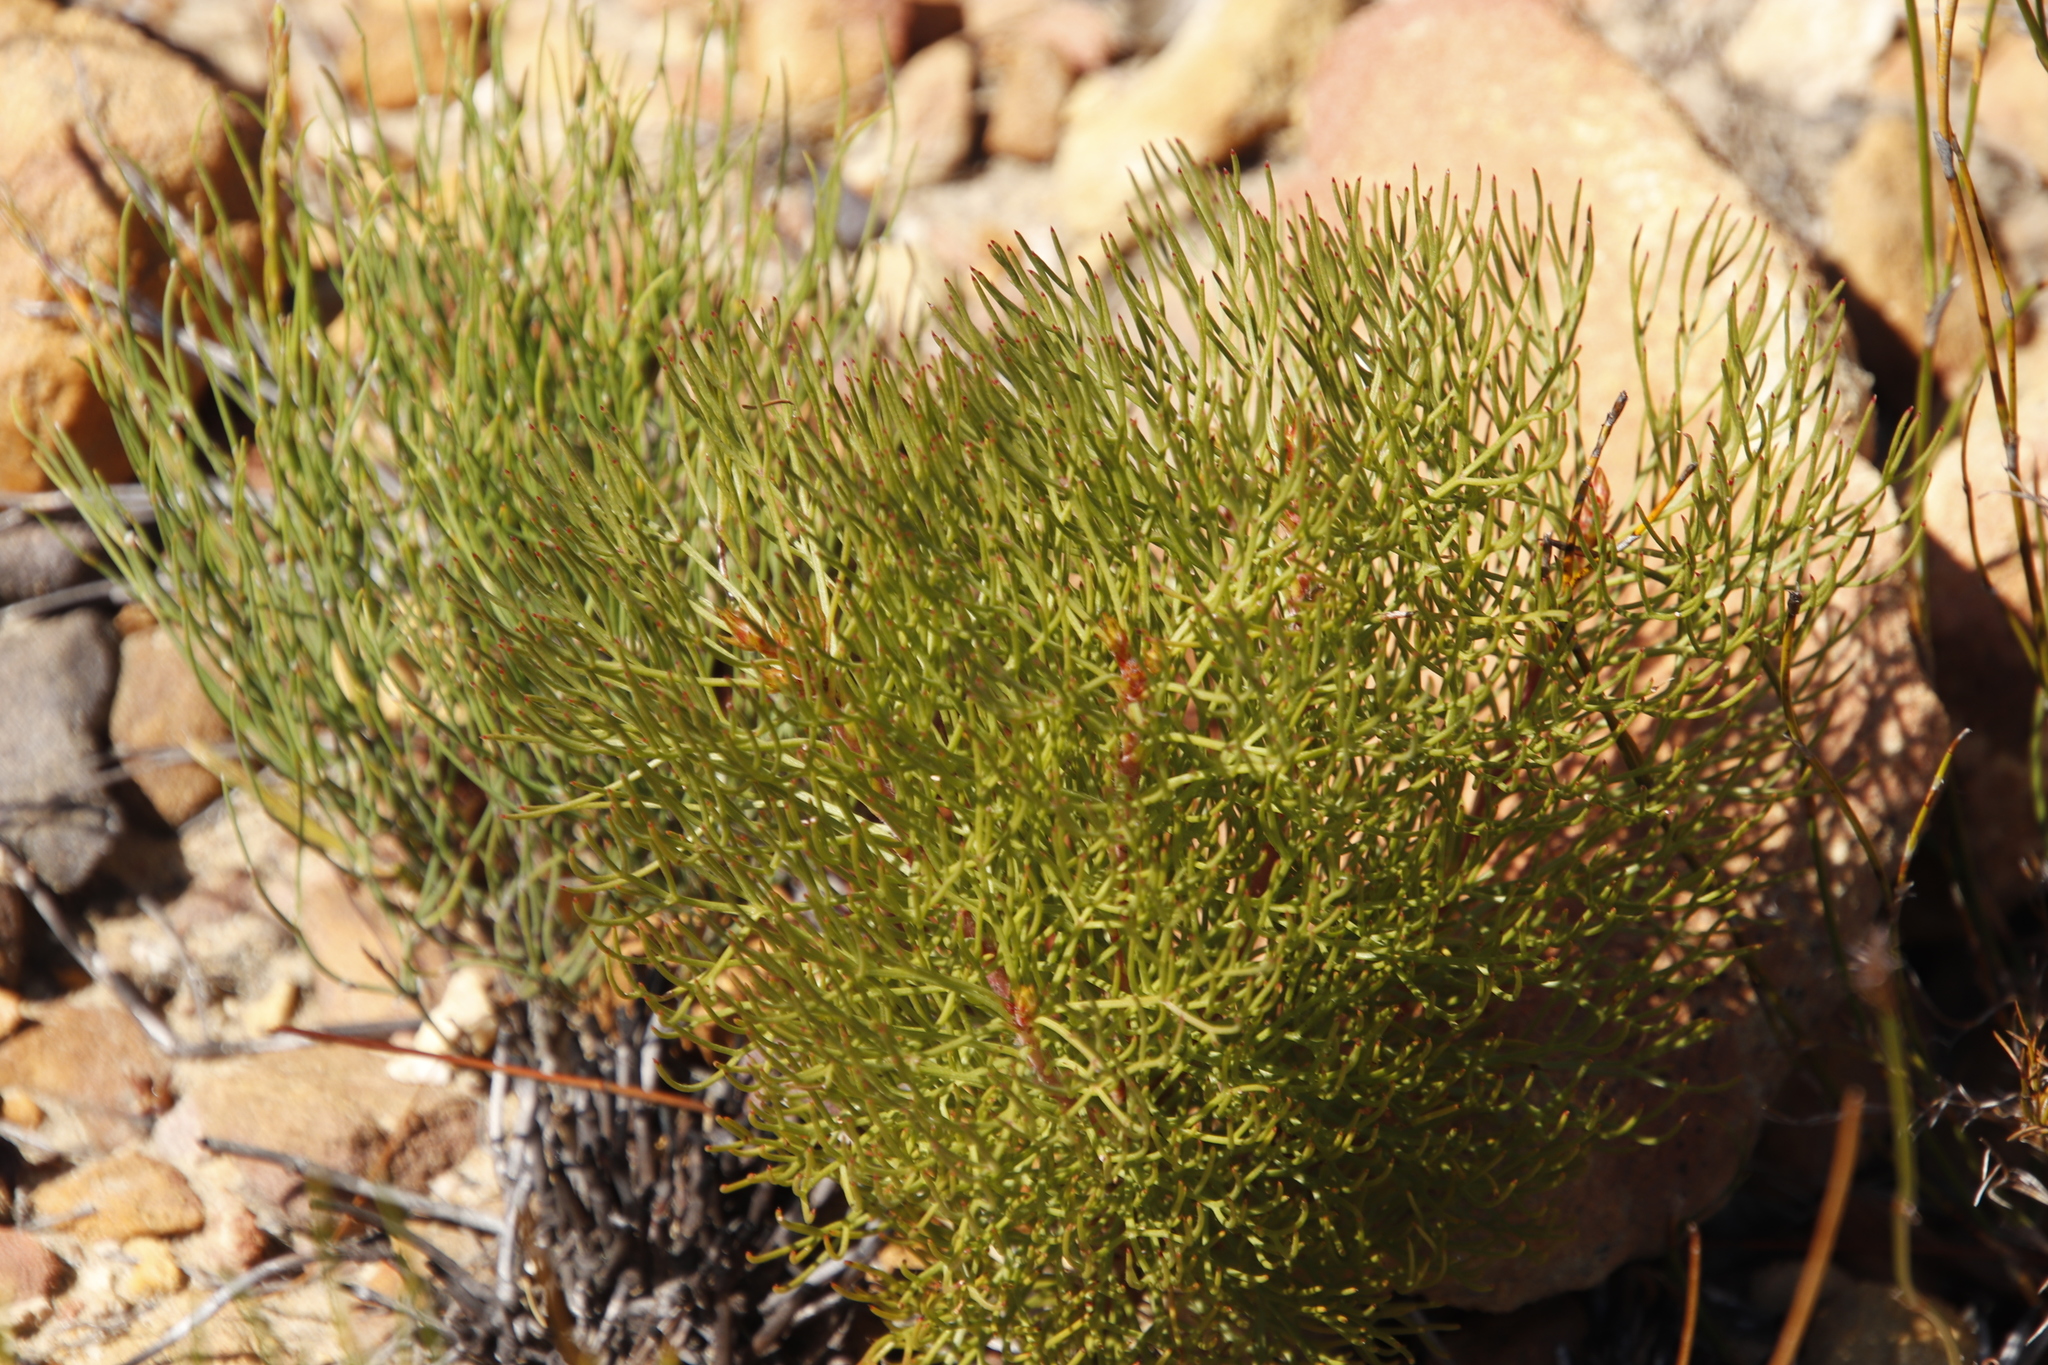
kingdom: Plantae
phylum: Tracheophyta
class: Magnoliopsida
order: Proteales
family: Proteaceae
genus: Serruria
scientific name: Serruria fasciflora
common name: Common pin spiderhead
